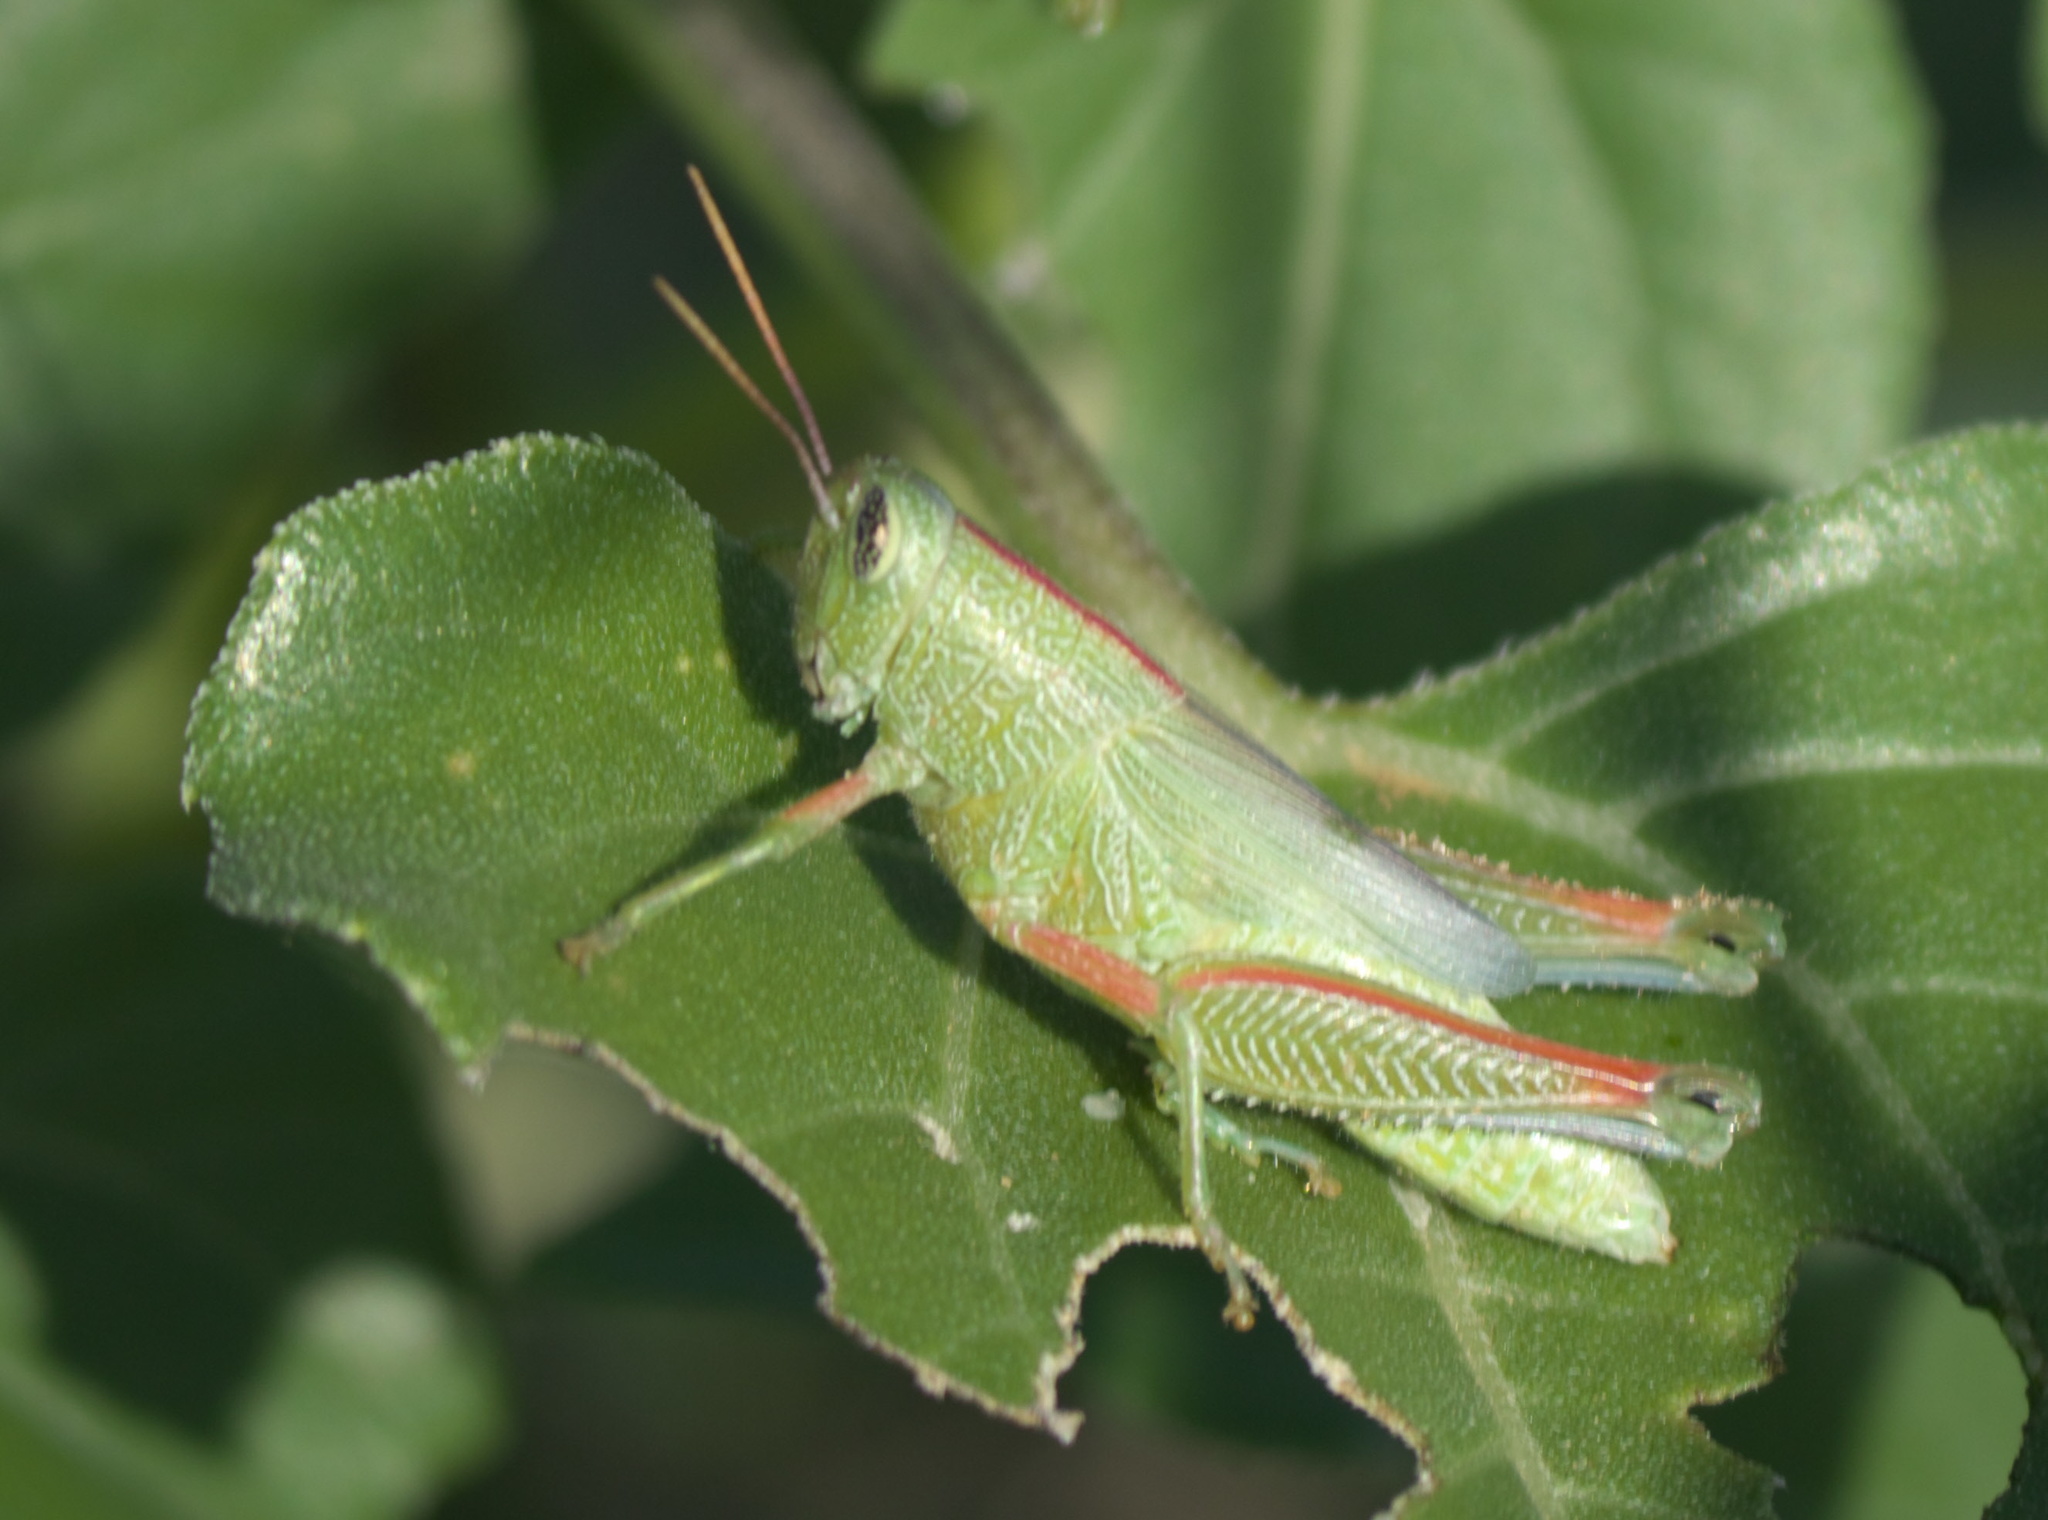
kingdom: Animalia
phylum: Arthropoda
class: Insecta
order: Orthoptera
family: Acrididae
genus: Hesperotettix
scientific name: Hesperotettix speciosus
